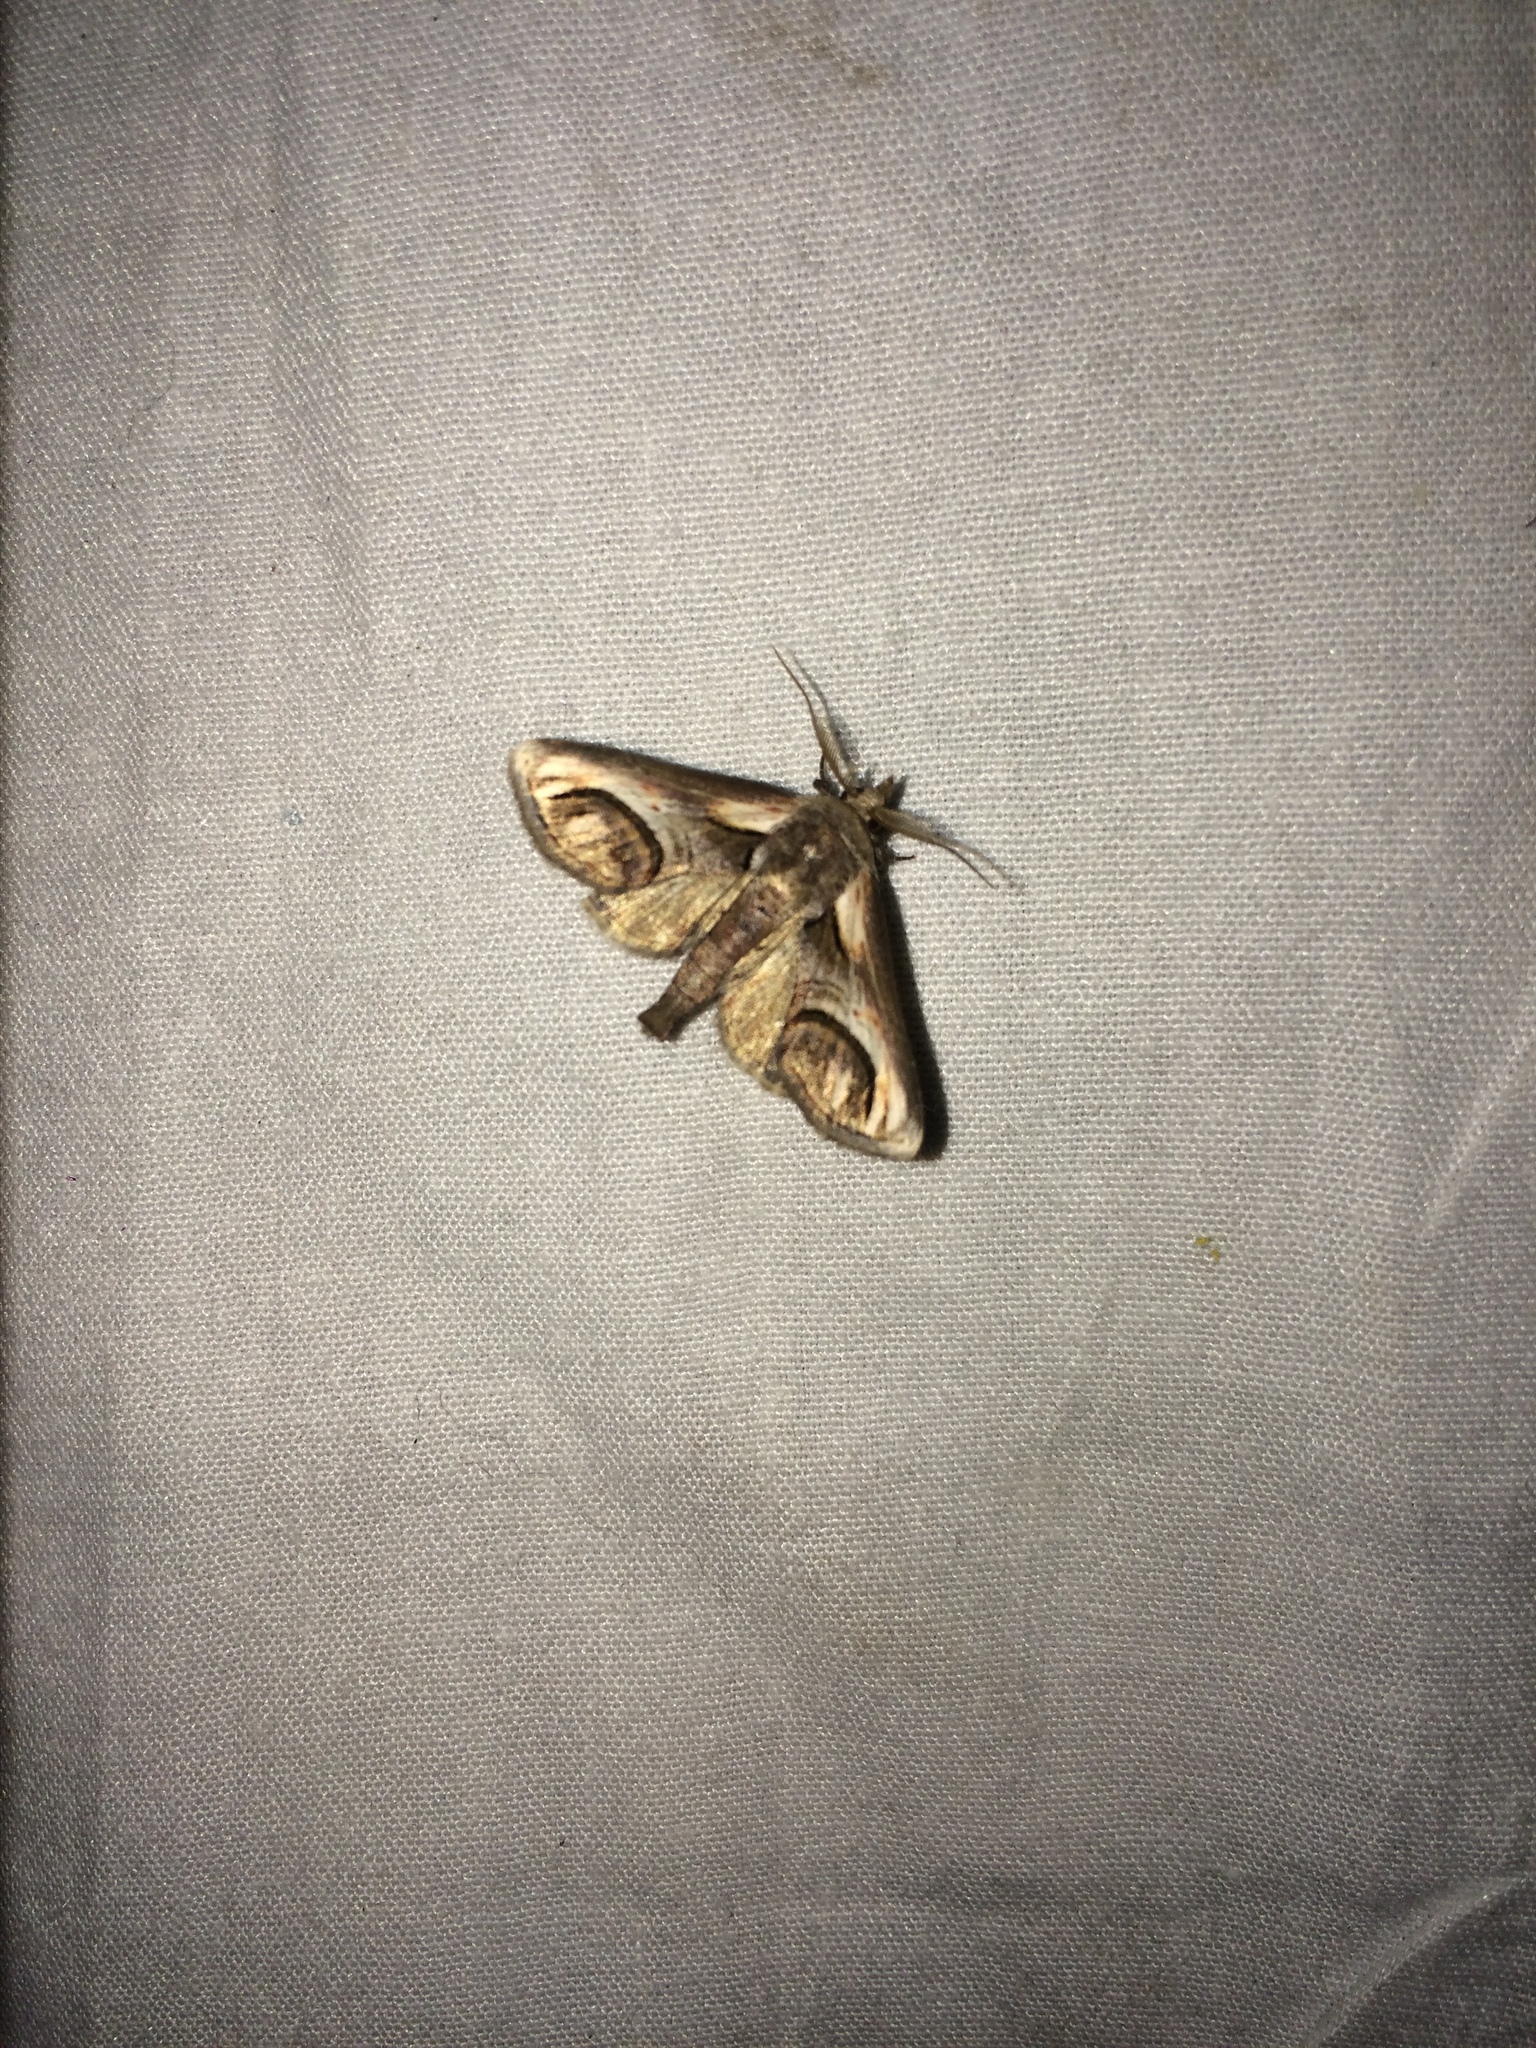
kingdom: Animalia
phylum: Arthropoda
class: Insecta
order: Lepidoptera
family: Euteliidae
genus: Paectes
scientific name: Paectes oculatrix
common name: Eyed paectes moth
